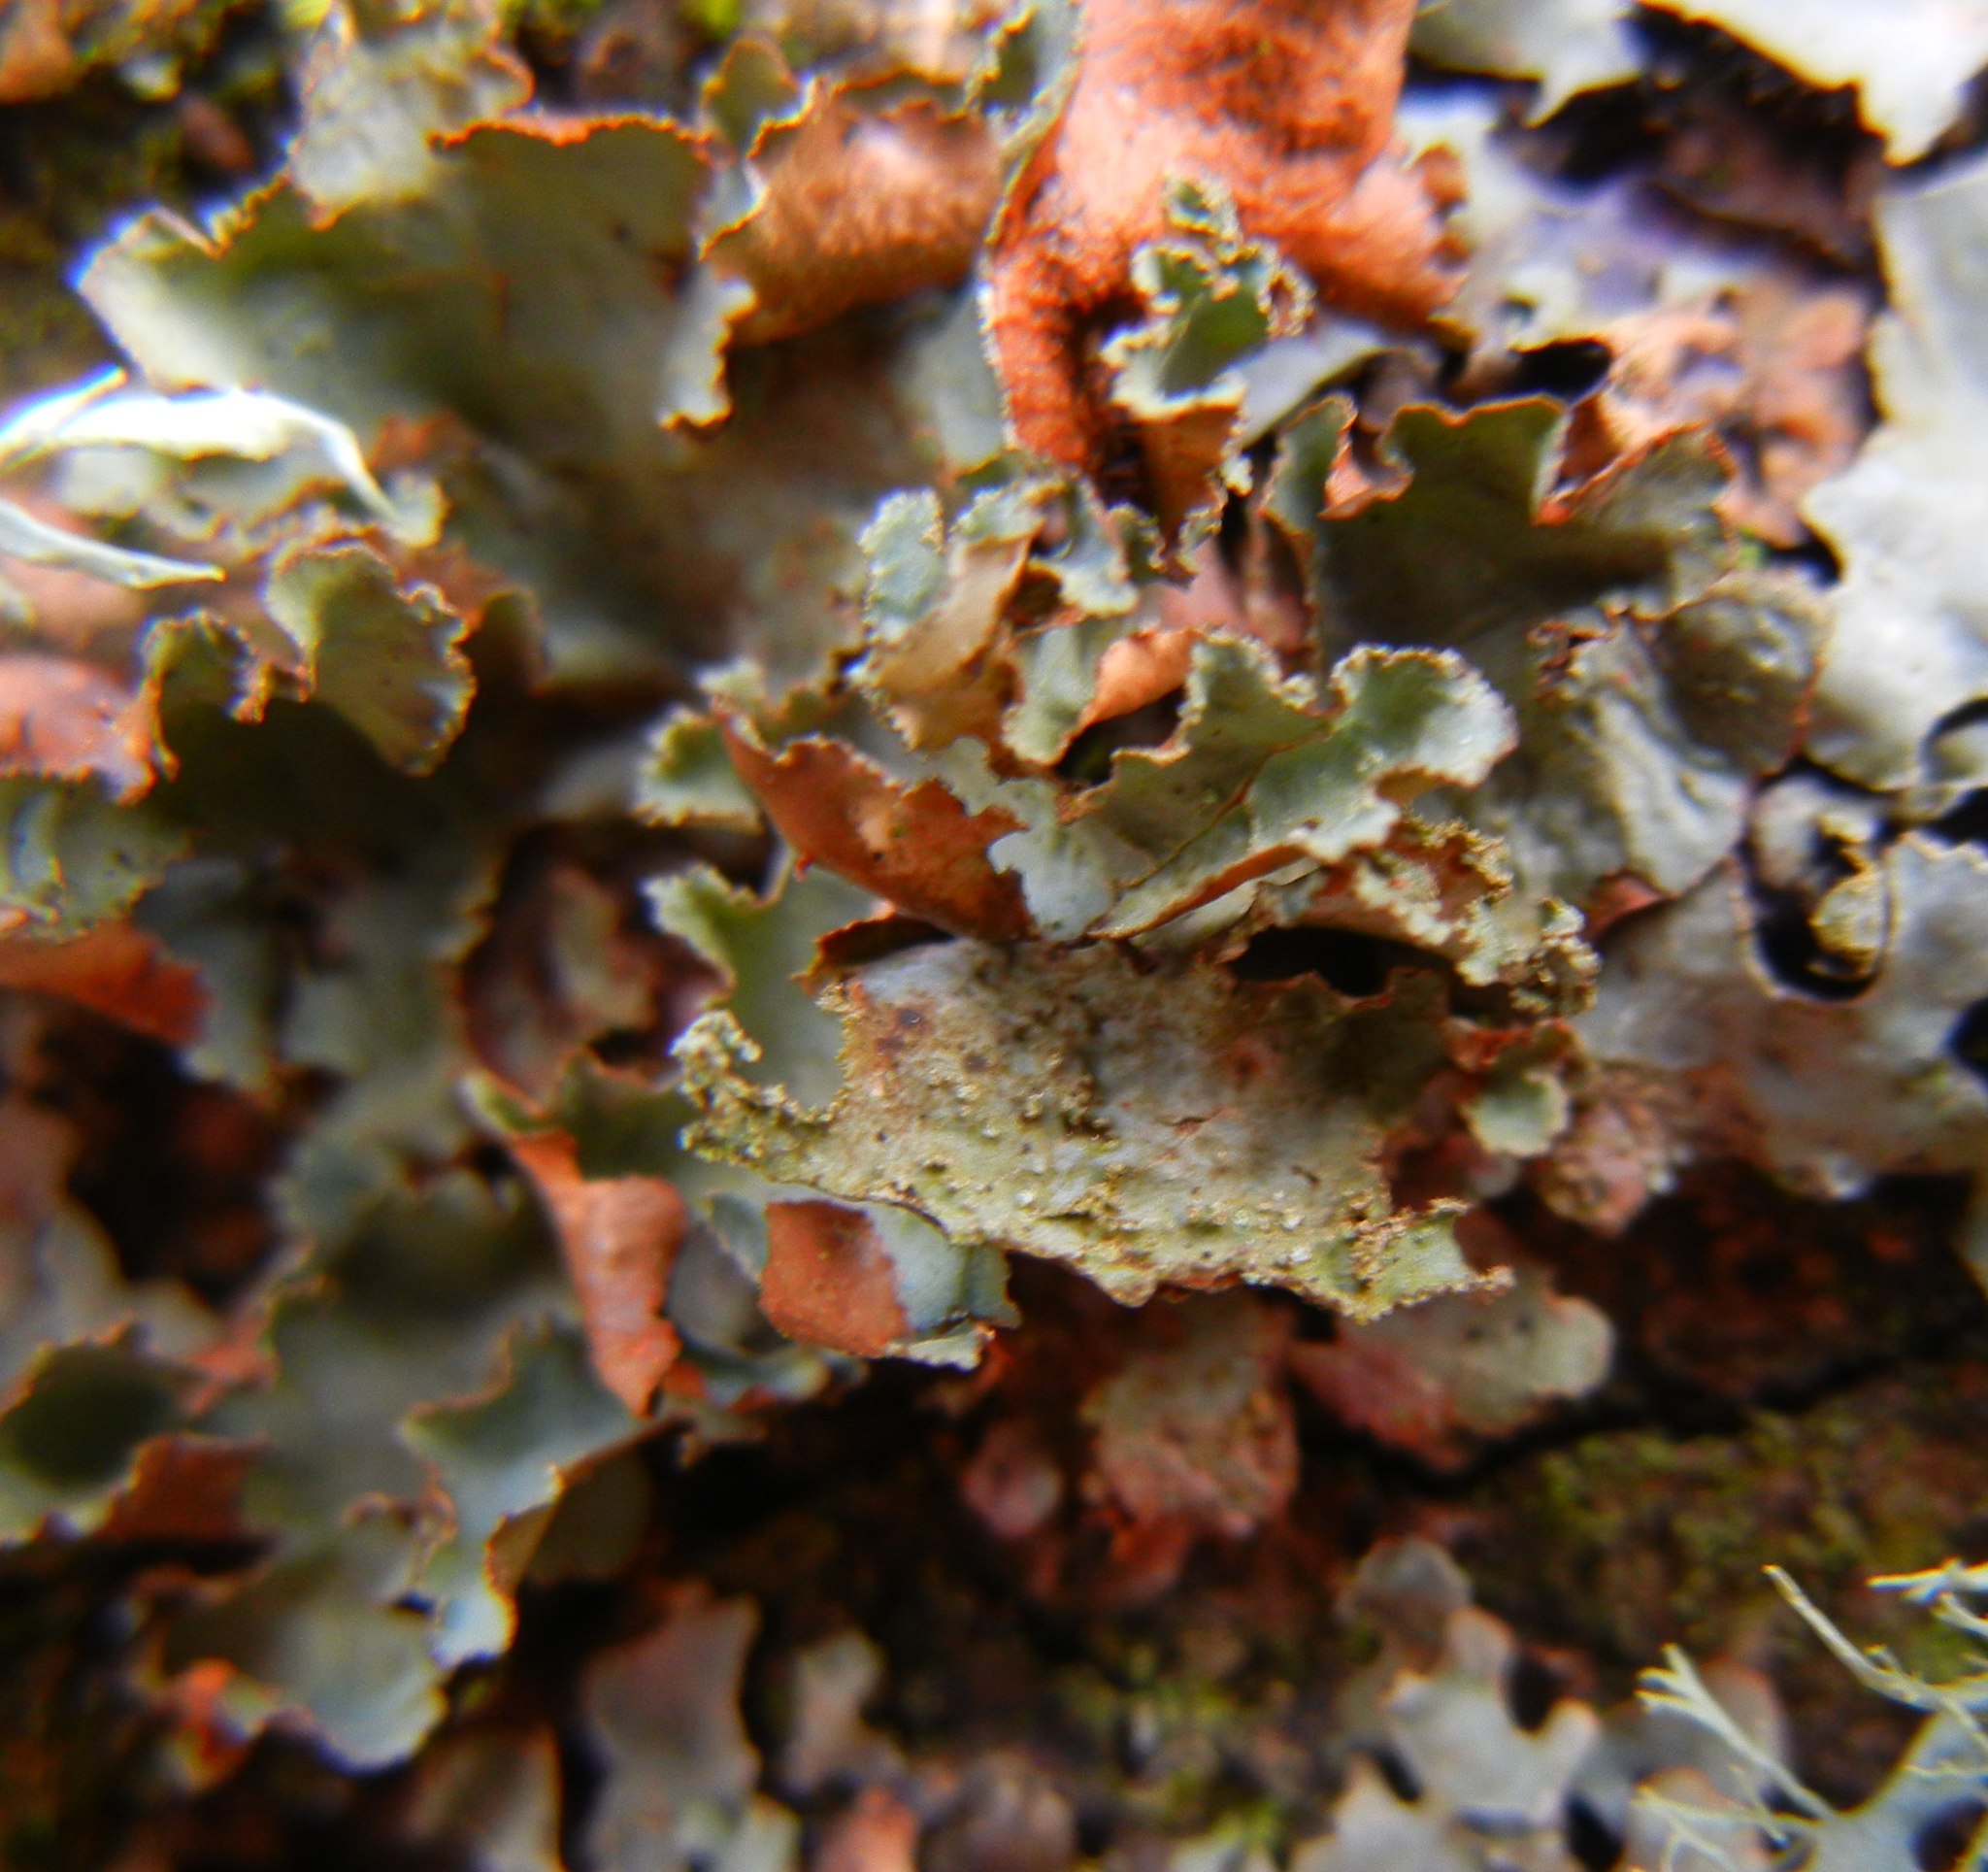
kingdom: Fungi
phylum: Ascomycota
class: Lecanoromycetes
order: Lecanorales
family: Parmeliaceae
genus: Platismatia
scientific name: Platismatia glauca
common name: Varied rag lichen
